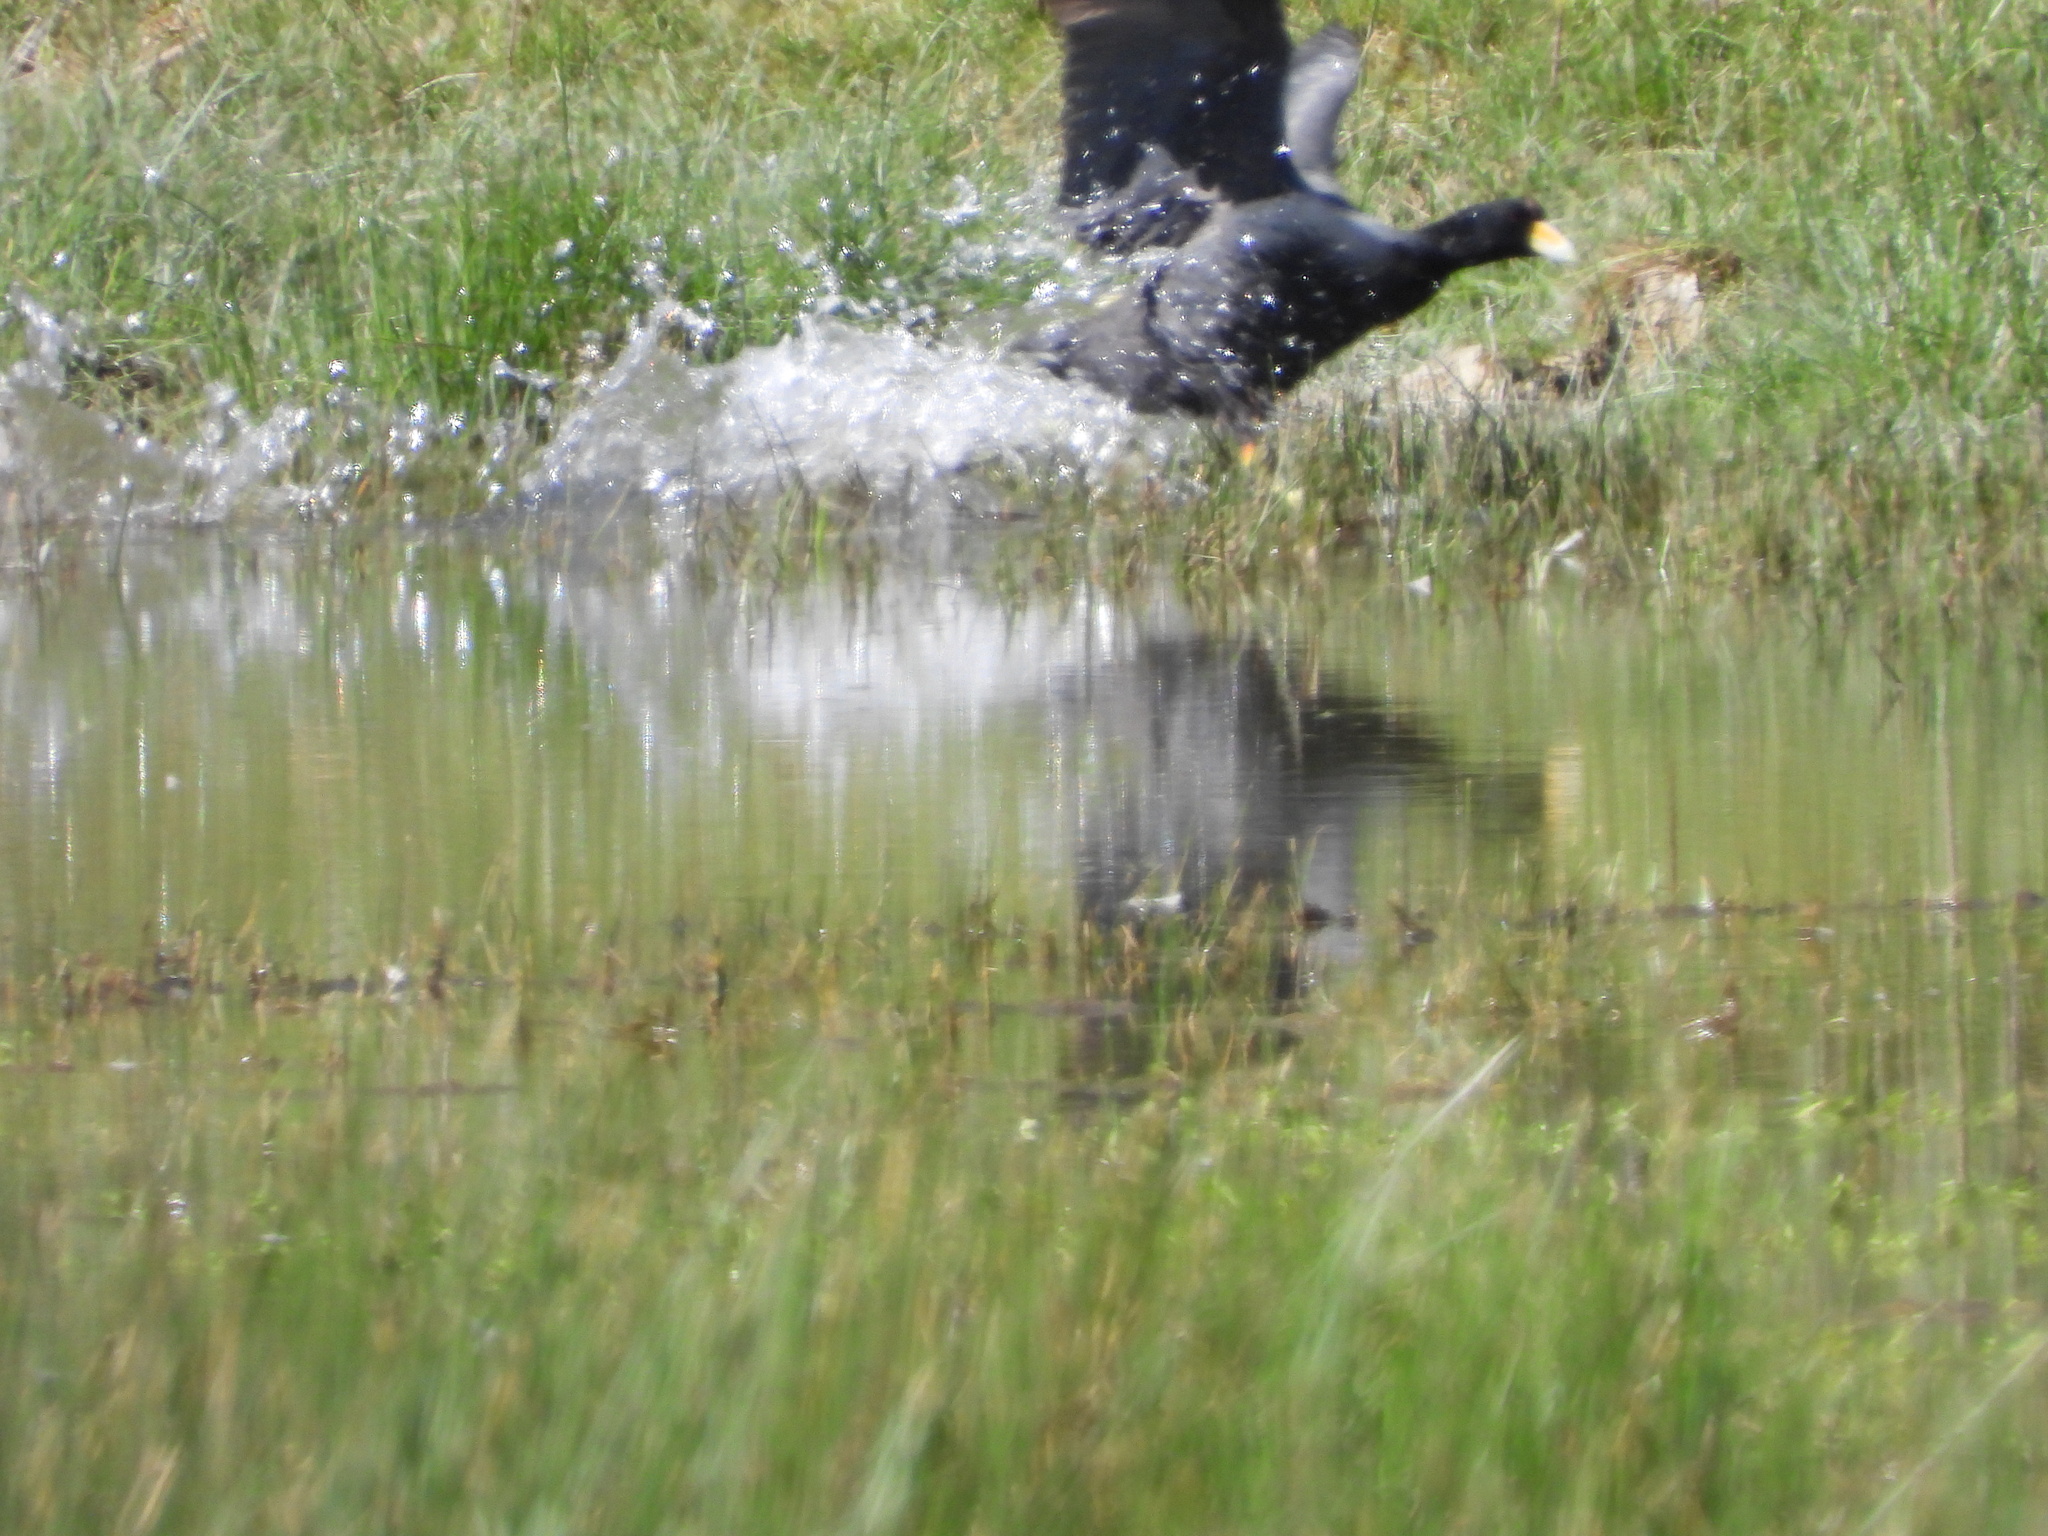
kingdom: Animalia
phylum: Chordata
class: Aves
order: Gruiformes
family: Rallidae
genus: Fulica
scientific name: Fulica ardesiaca
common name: Andean coot
